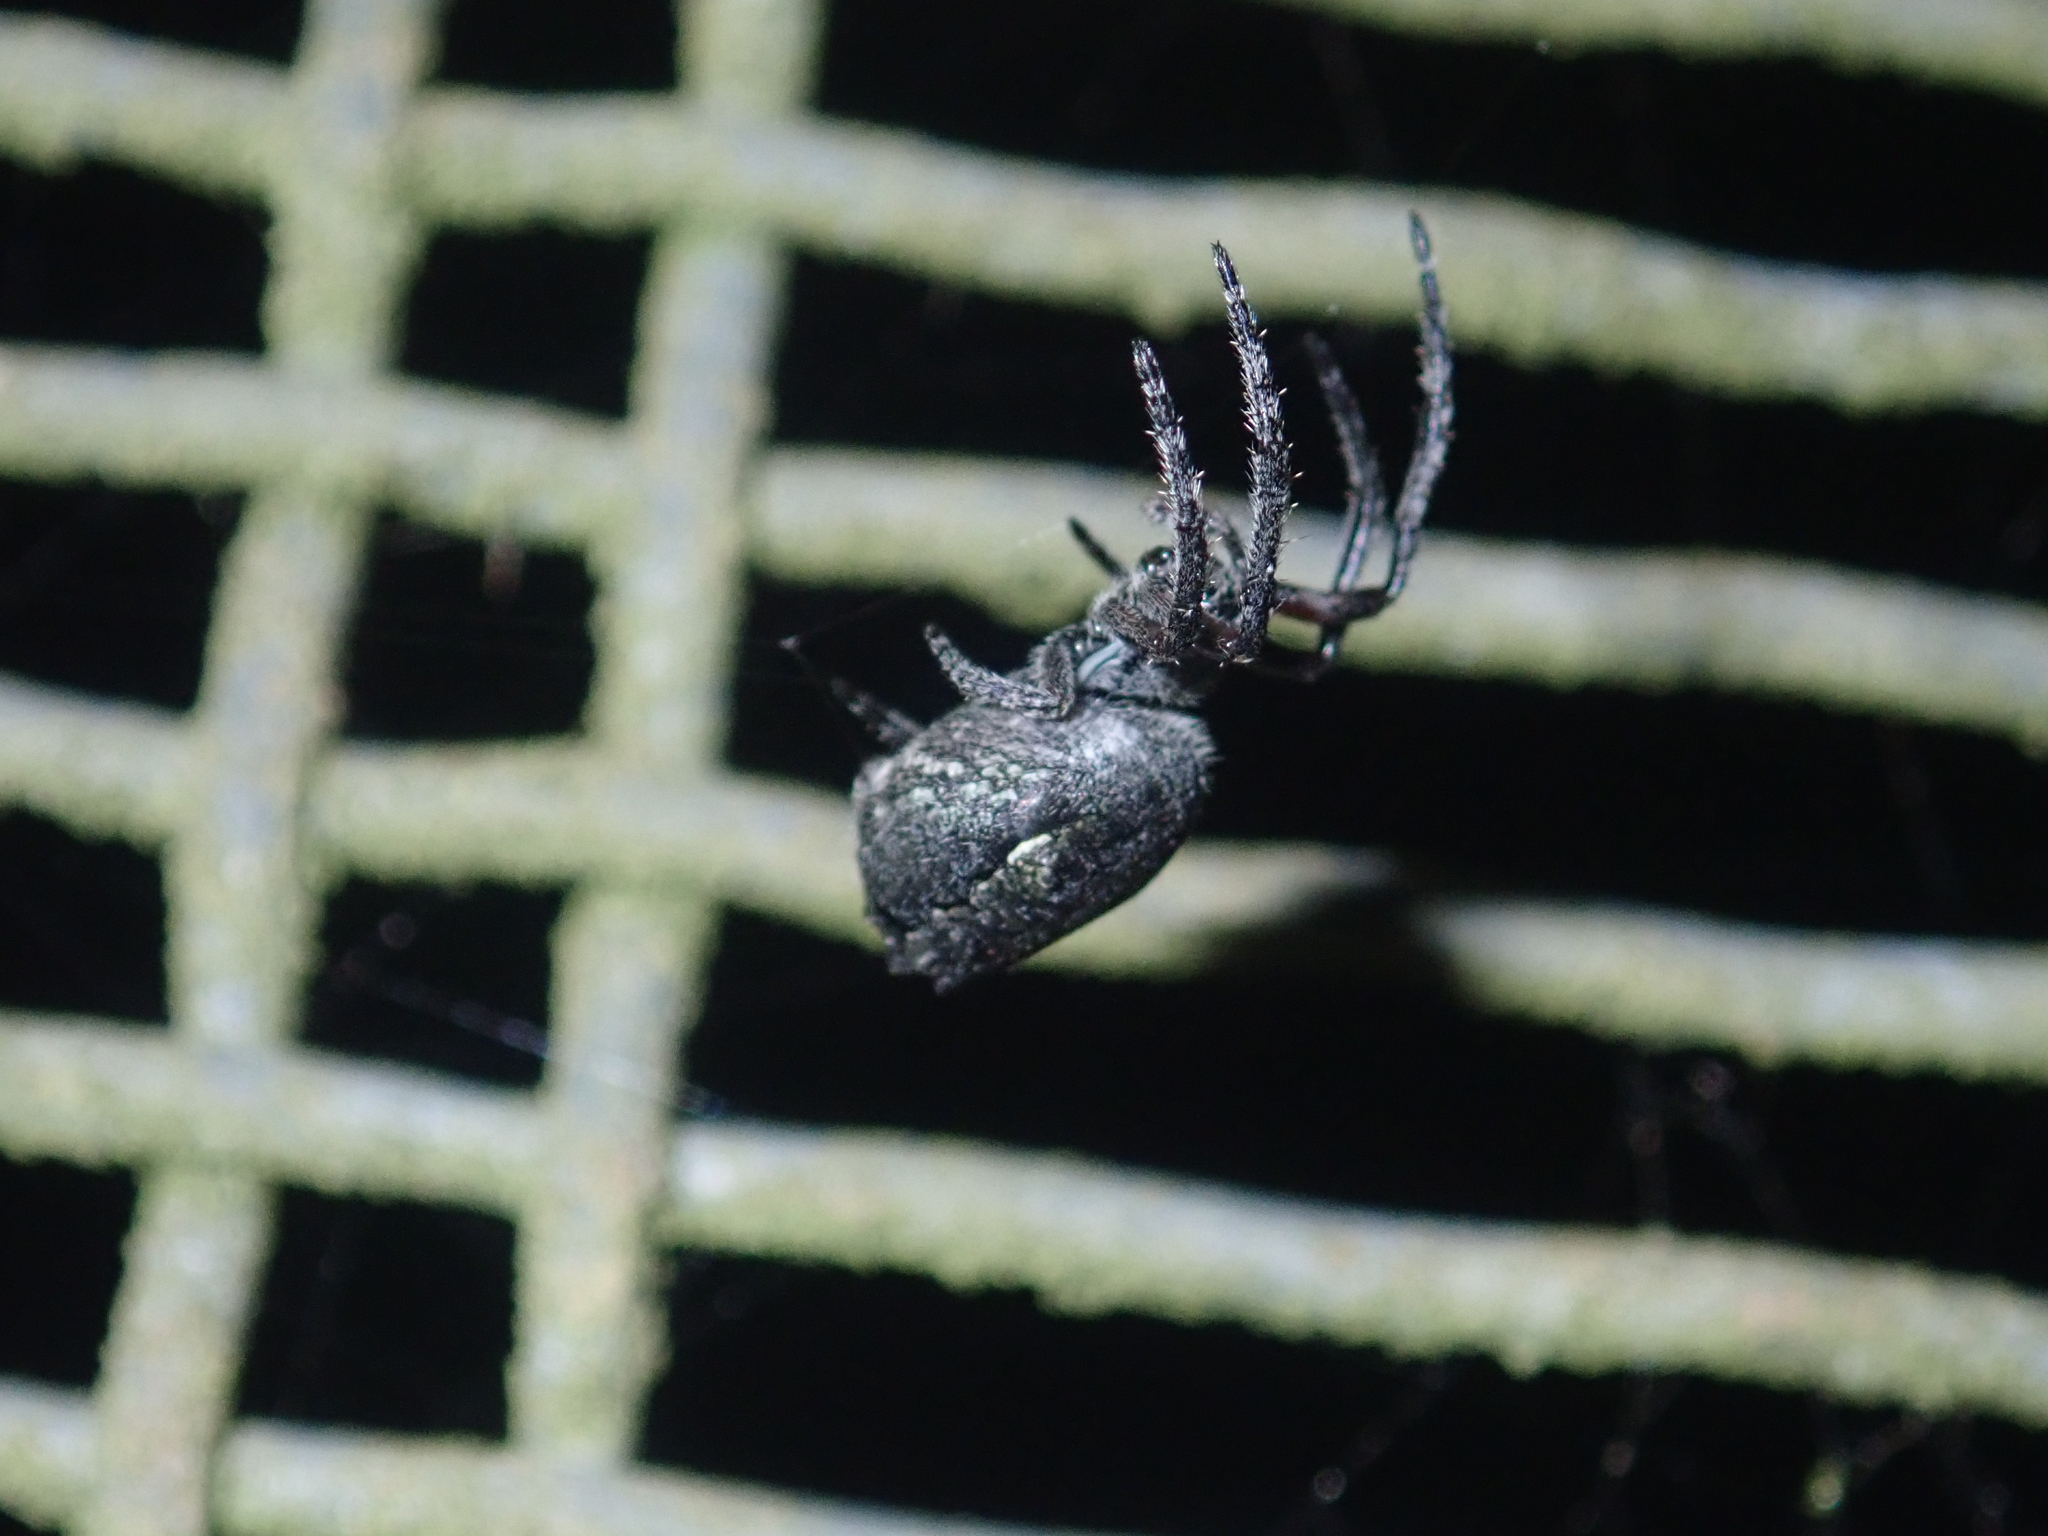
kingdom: Animalia
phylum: Arthropoda
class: Arachnida
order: Araneae
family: Araneidae
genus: Eriophora
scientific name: Eriophora pustulosa
